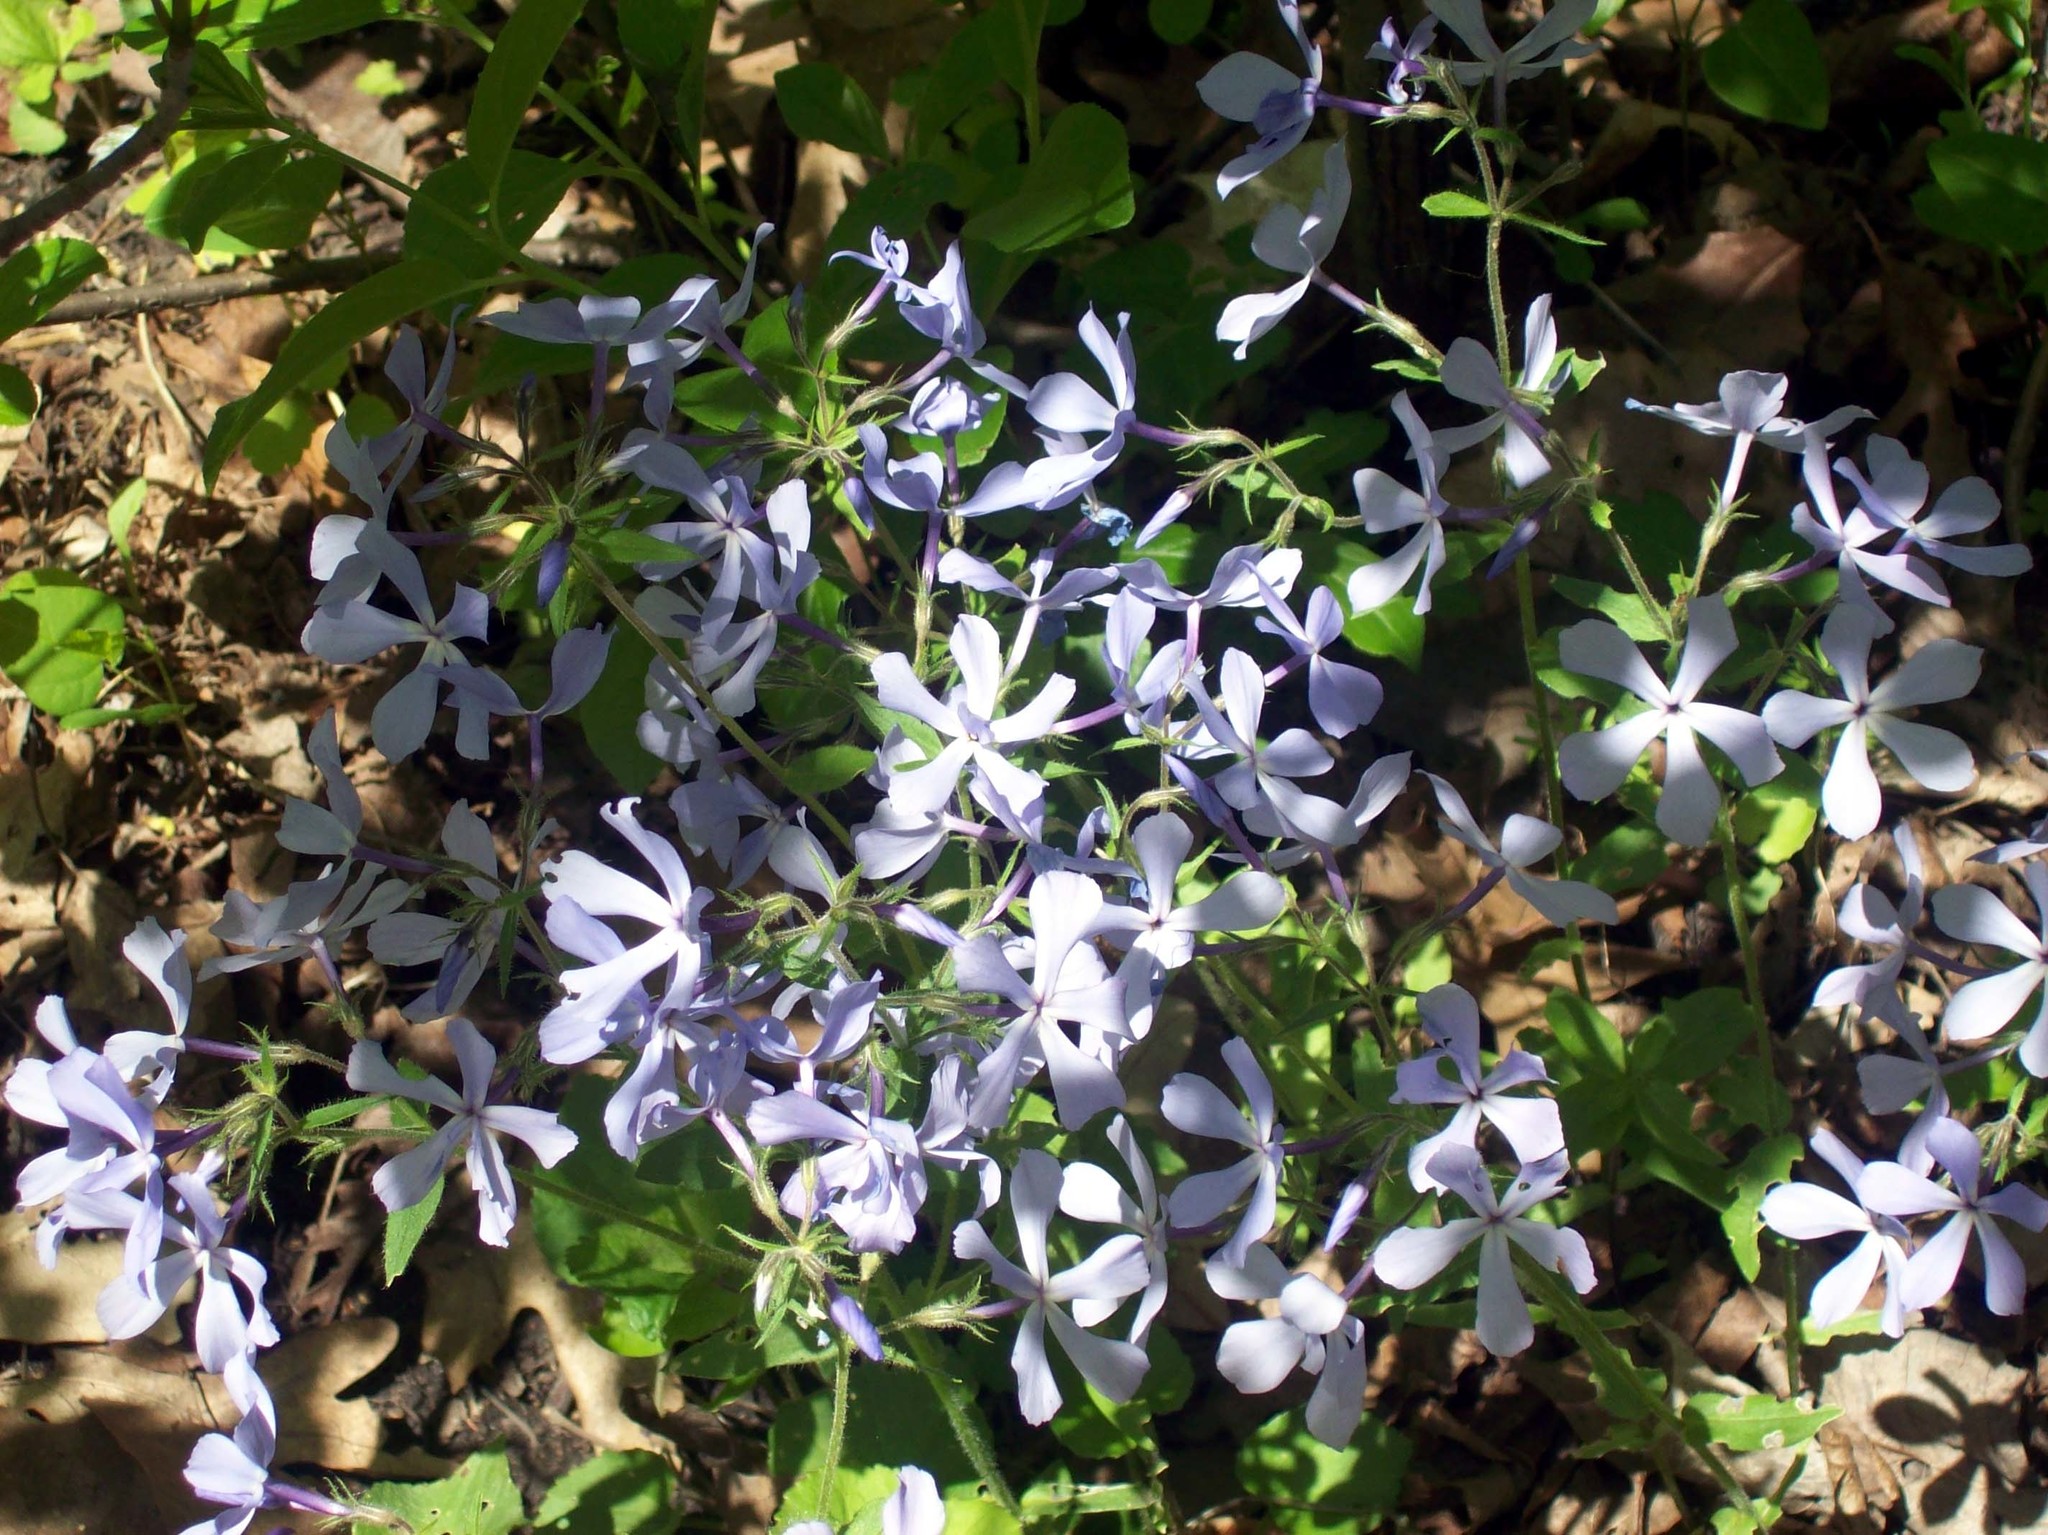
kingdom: Plantae
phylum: Tracheophyta
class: Magnoliopsida
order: Ericales
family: Polemoniaceae
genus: Phlox
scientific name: Phlox divaricata
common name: Blue phlox
